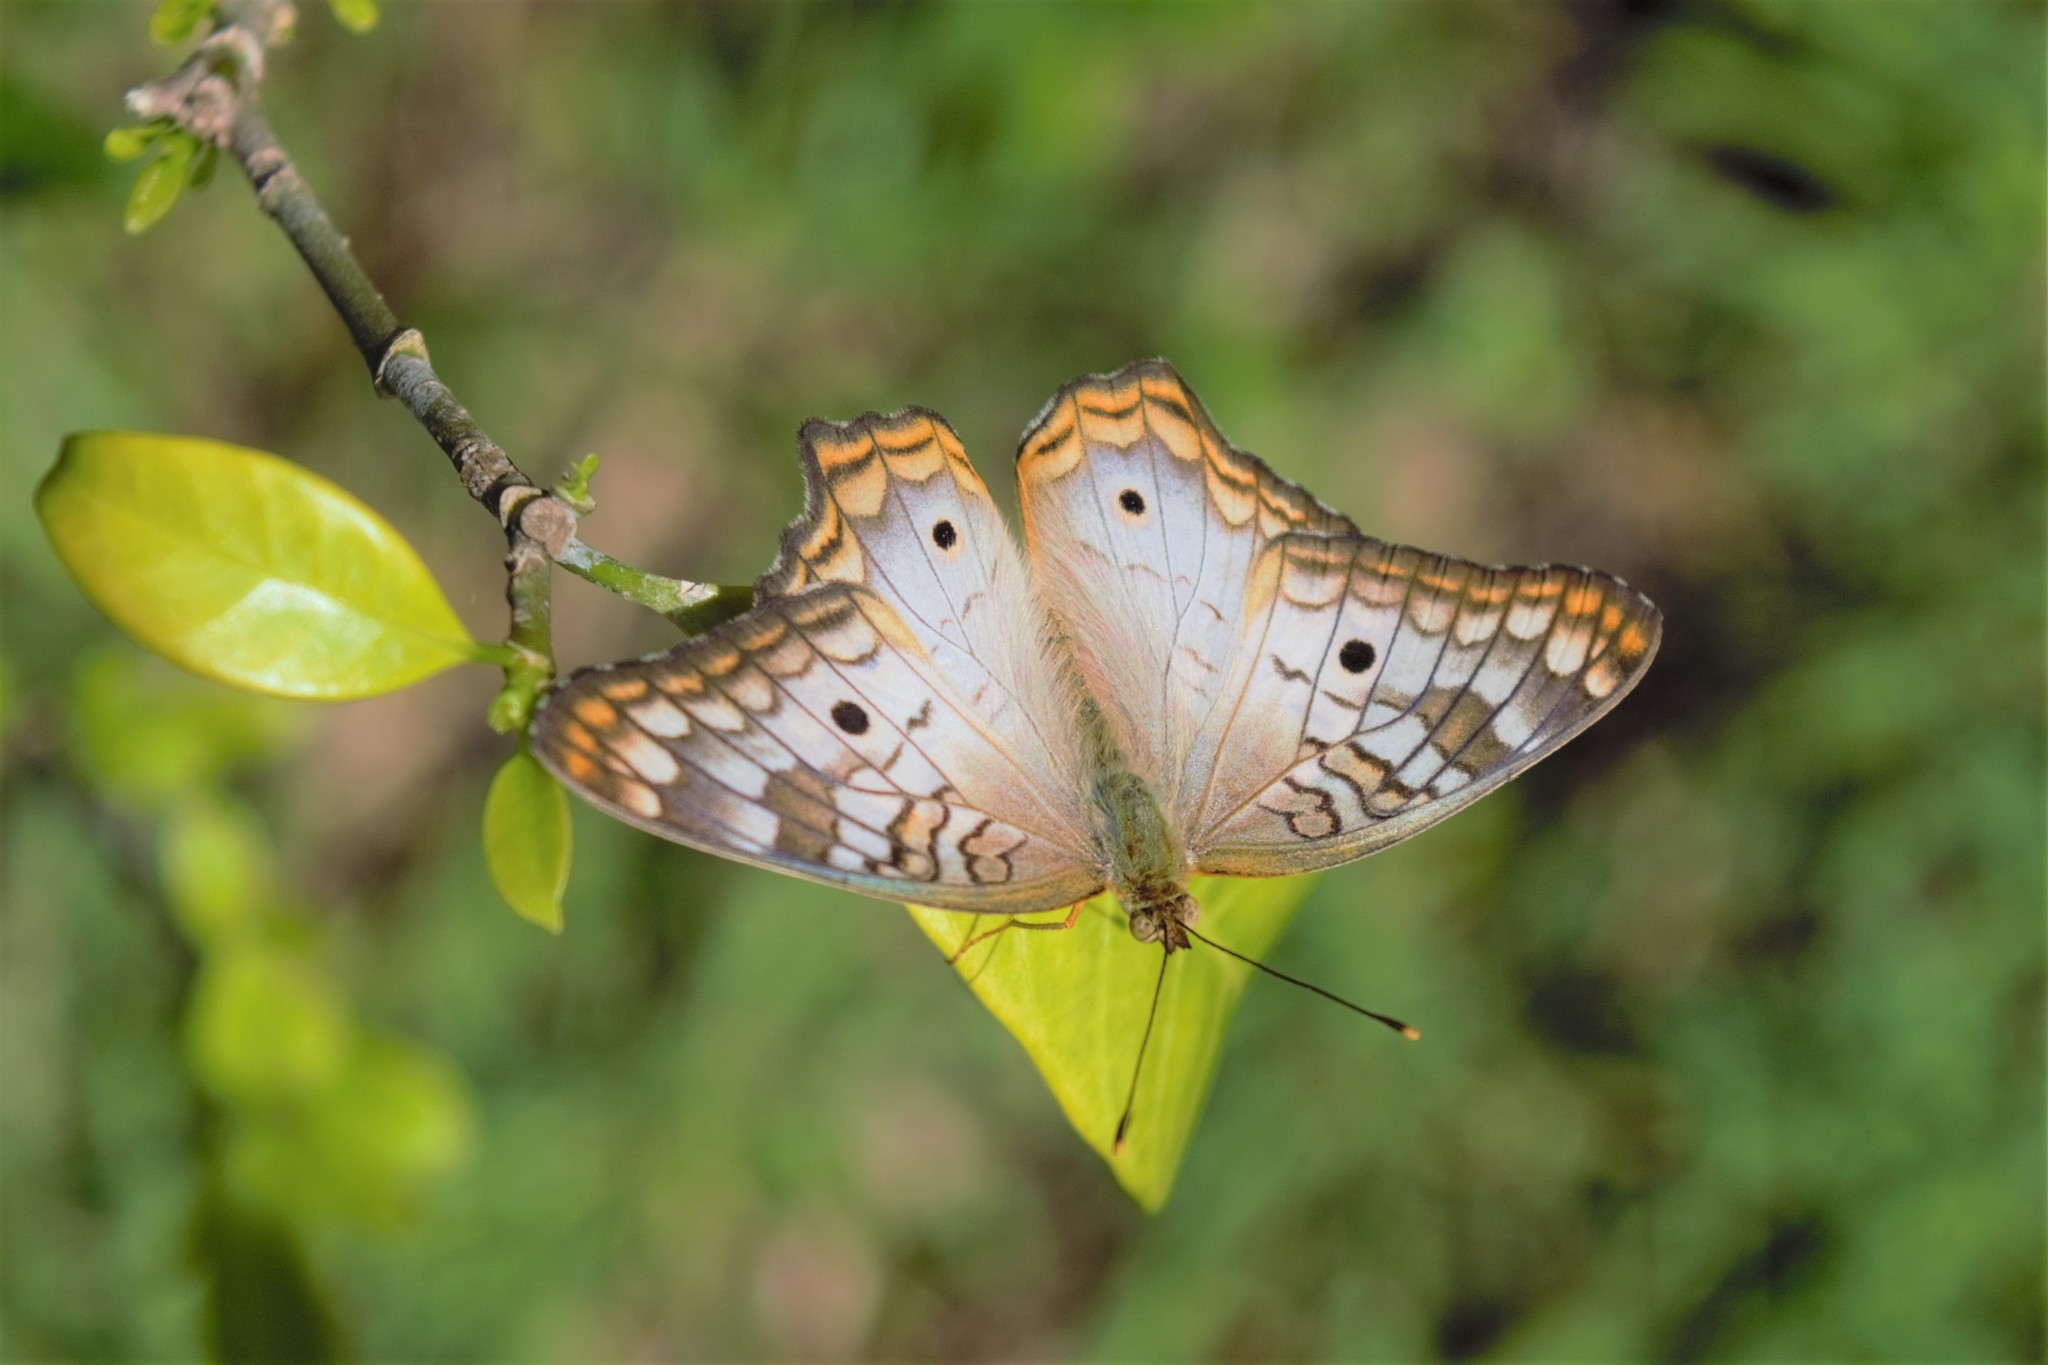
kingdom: Animalia
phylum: Arthropoda
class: Insecta
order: Lepidoptera
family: Nymphalidae
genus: Anartia
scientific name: Anartia jatrophae
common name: White peacock
